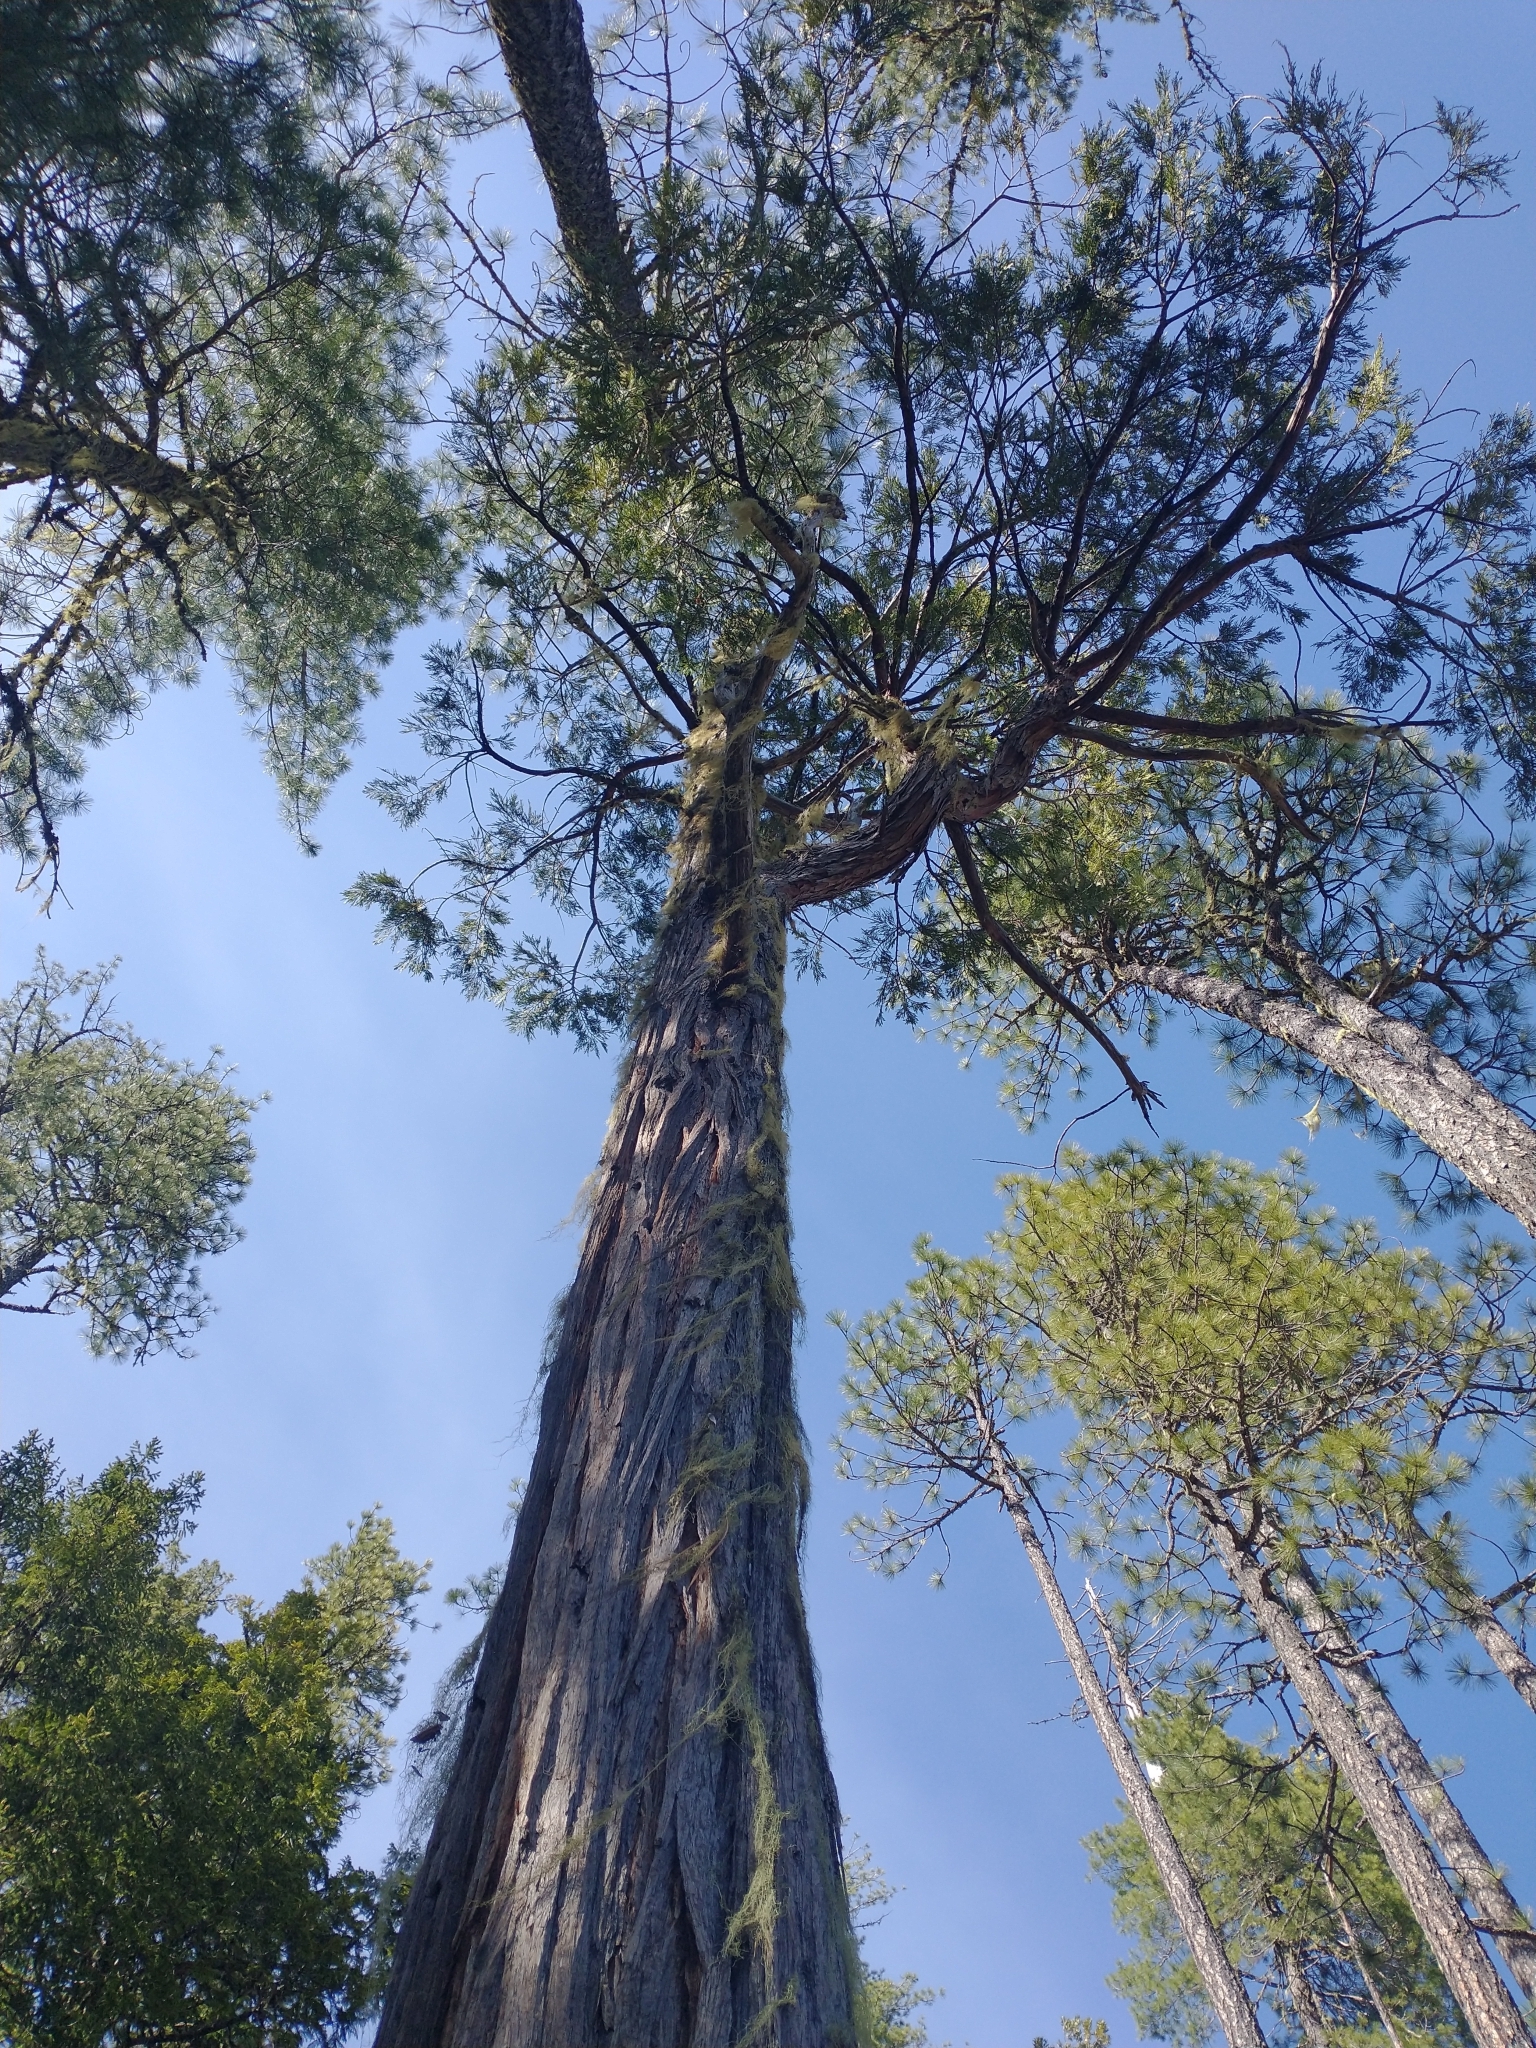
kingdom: Plantae
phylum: Tracheophyta
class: Pinopsida
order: Pinales
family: Cupressaceae
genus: Calocedrus
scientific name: Calocedrus decurrens
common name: Californian incense-cedar
